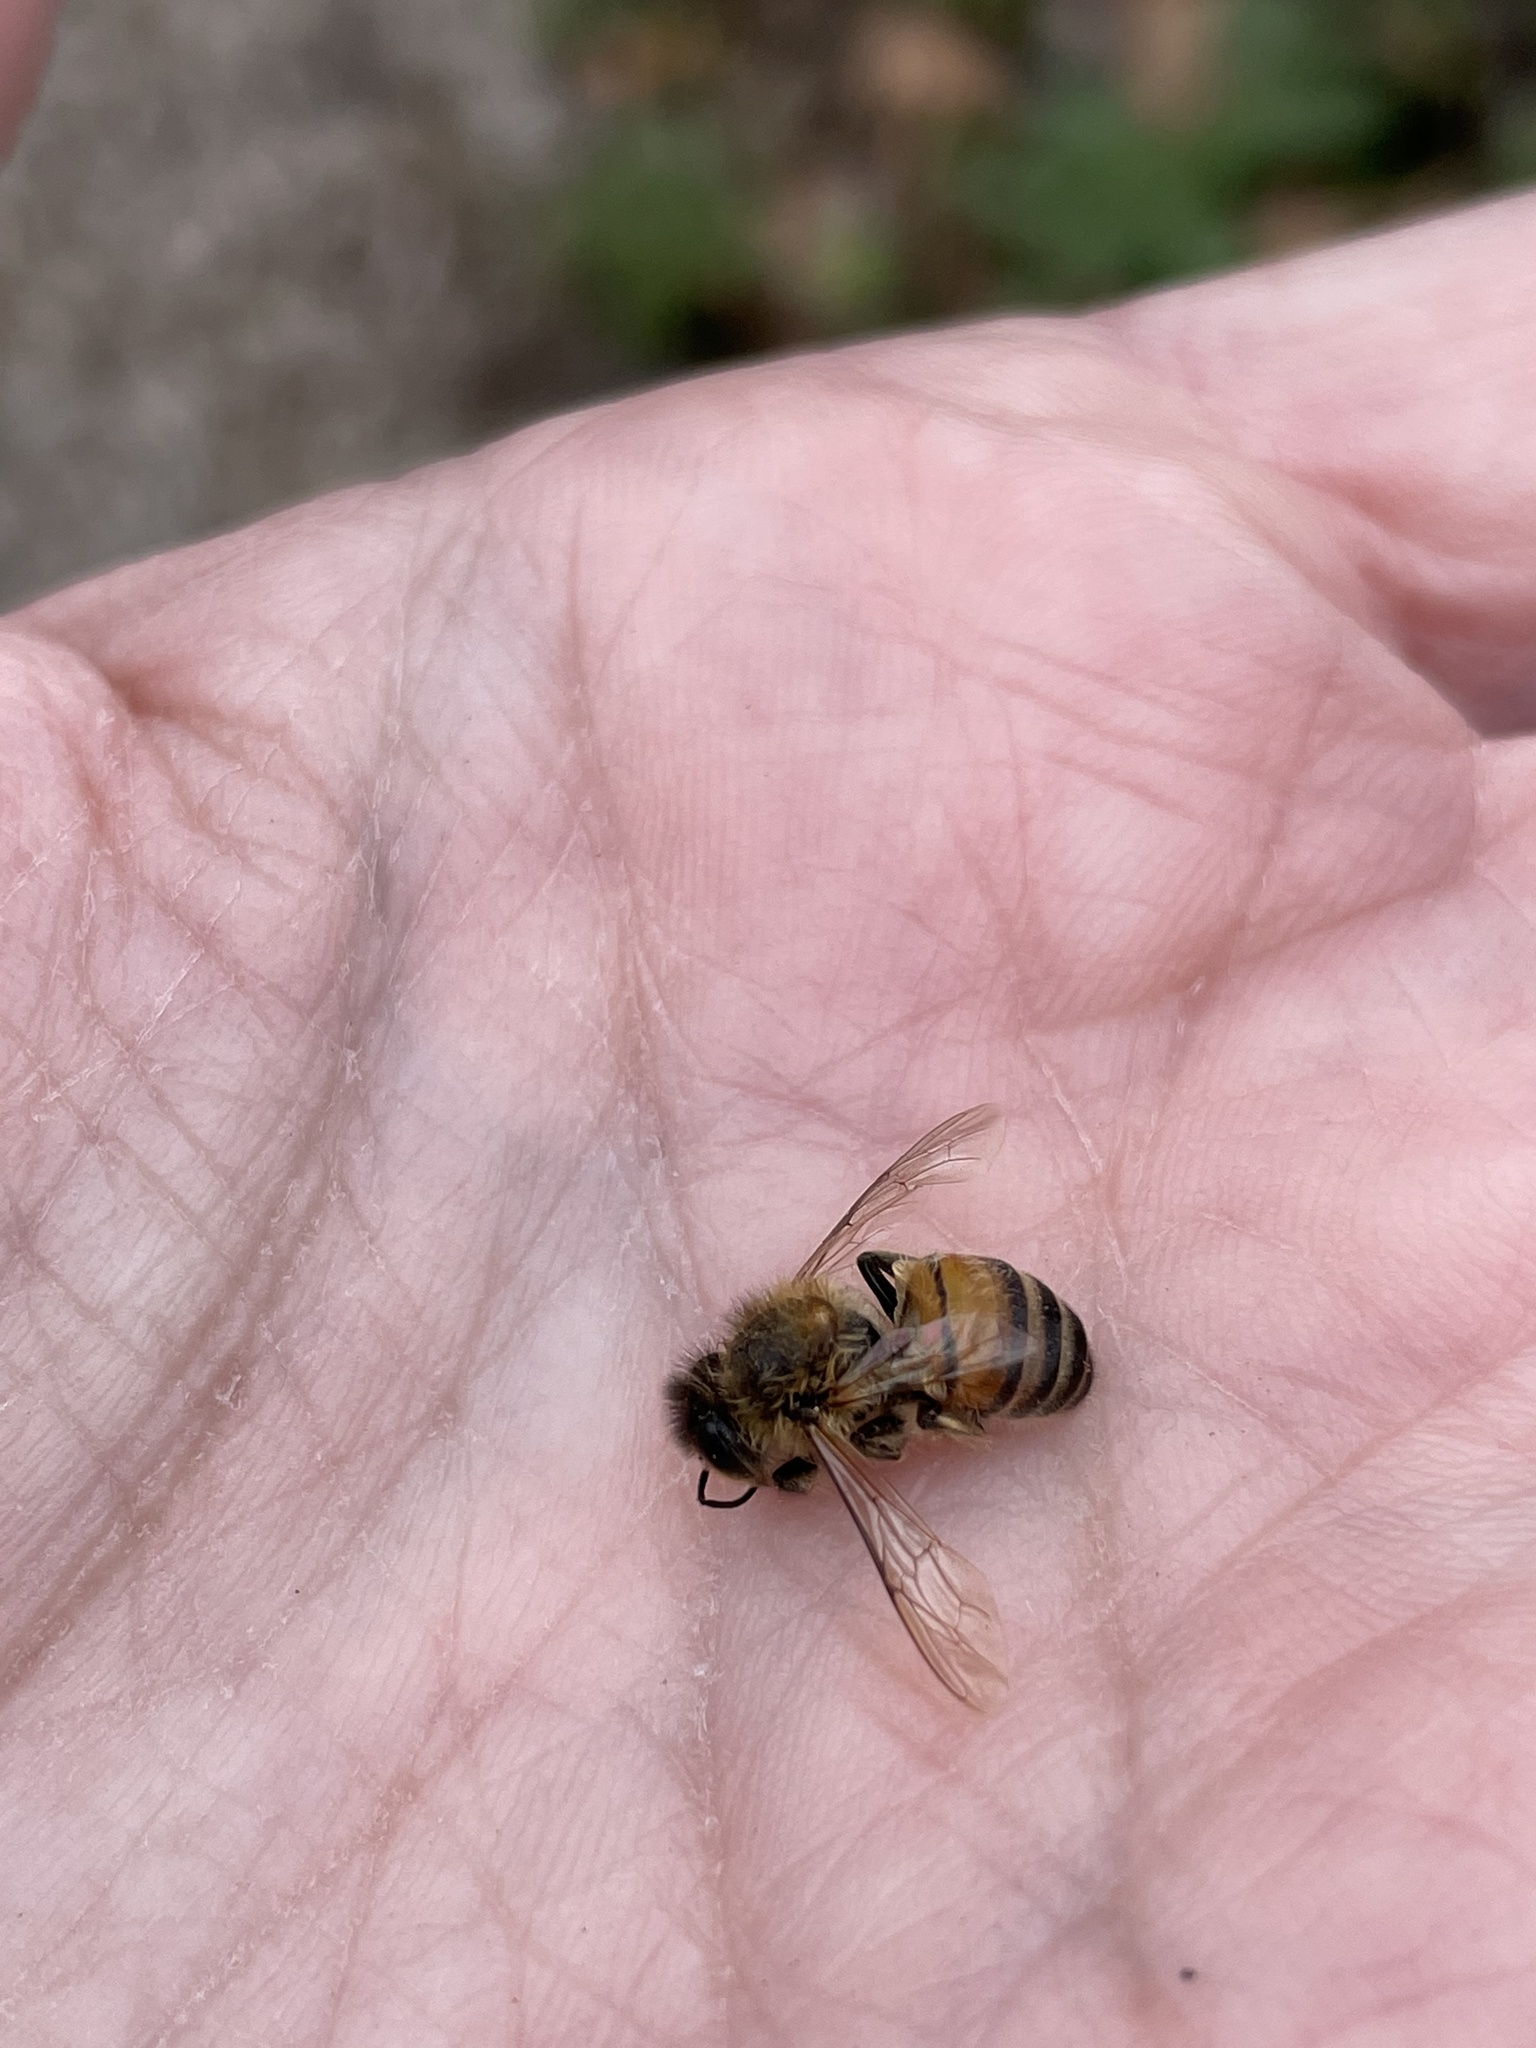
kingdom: Animalia
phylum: Arthropoda
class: Insecta
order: Hymenoptera
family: Apidae
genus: Apis
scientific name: Apis mellifera
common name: Honey bee
